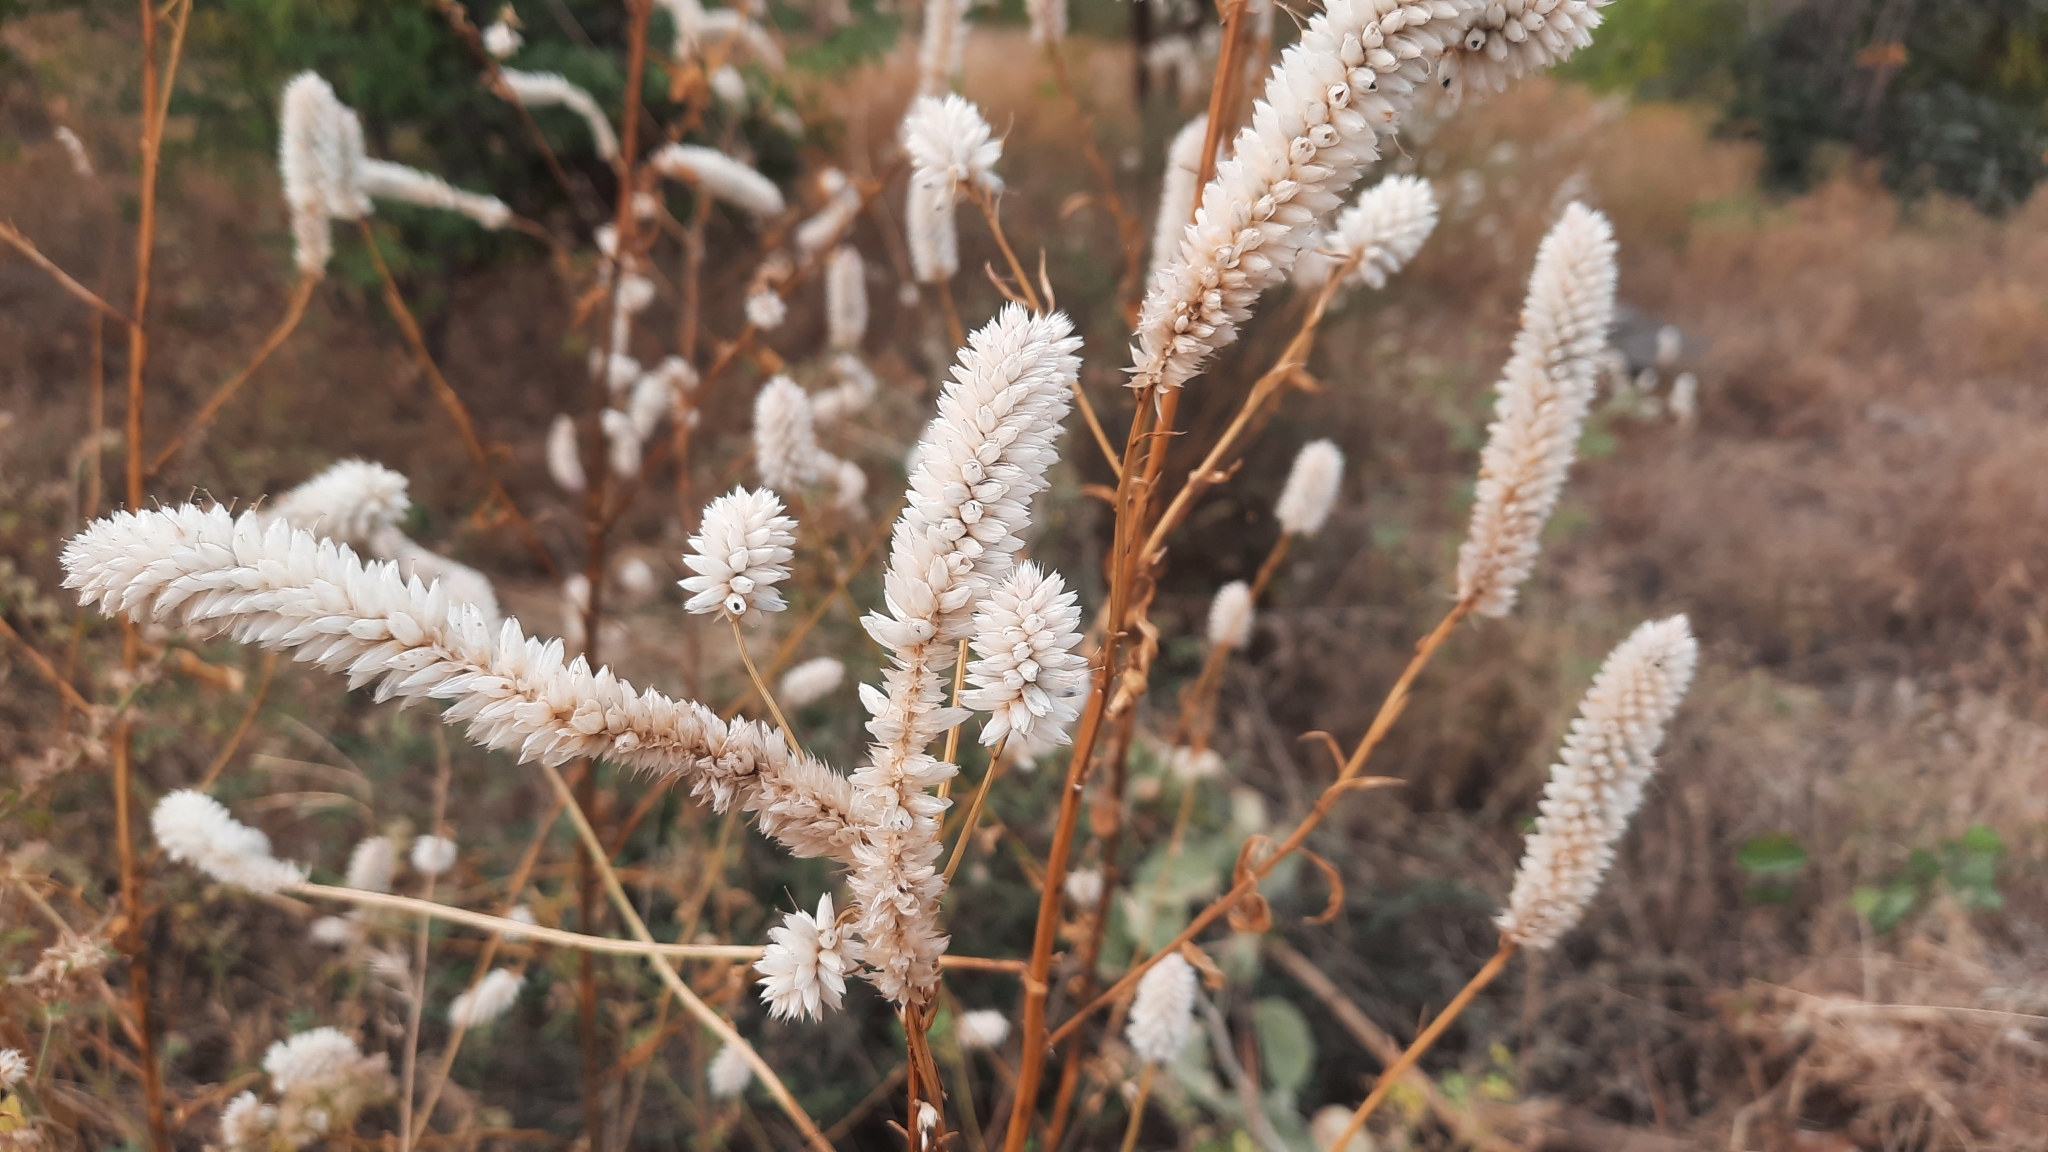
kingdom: Plantae
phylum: Tracheophyta
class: Magnoliopsida
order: Caryophyllales
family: Amaranthaceae
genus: Celosia
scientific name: Celosia argentea
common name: Feather cockscomb
